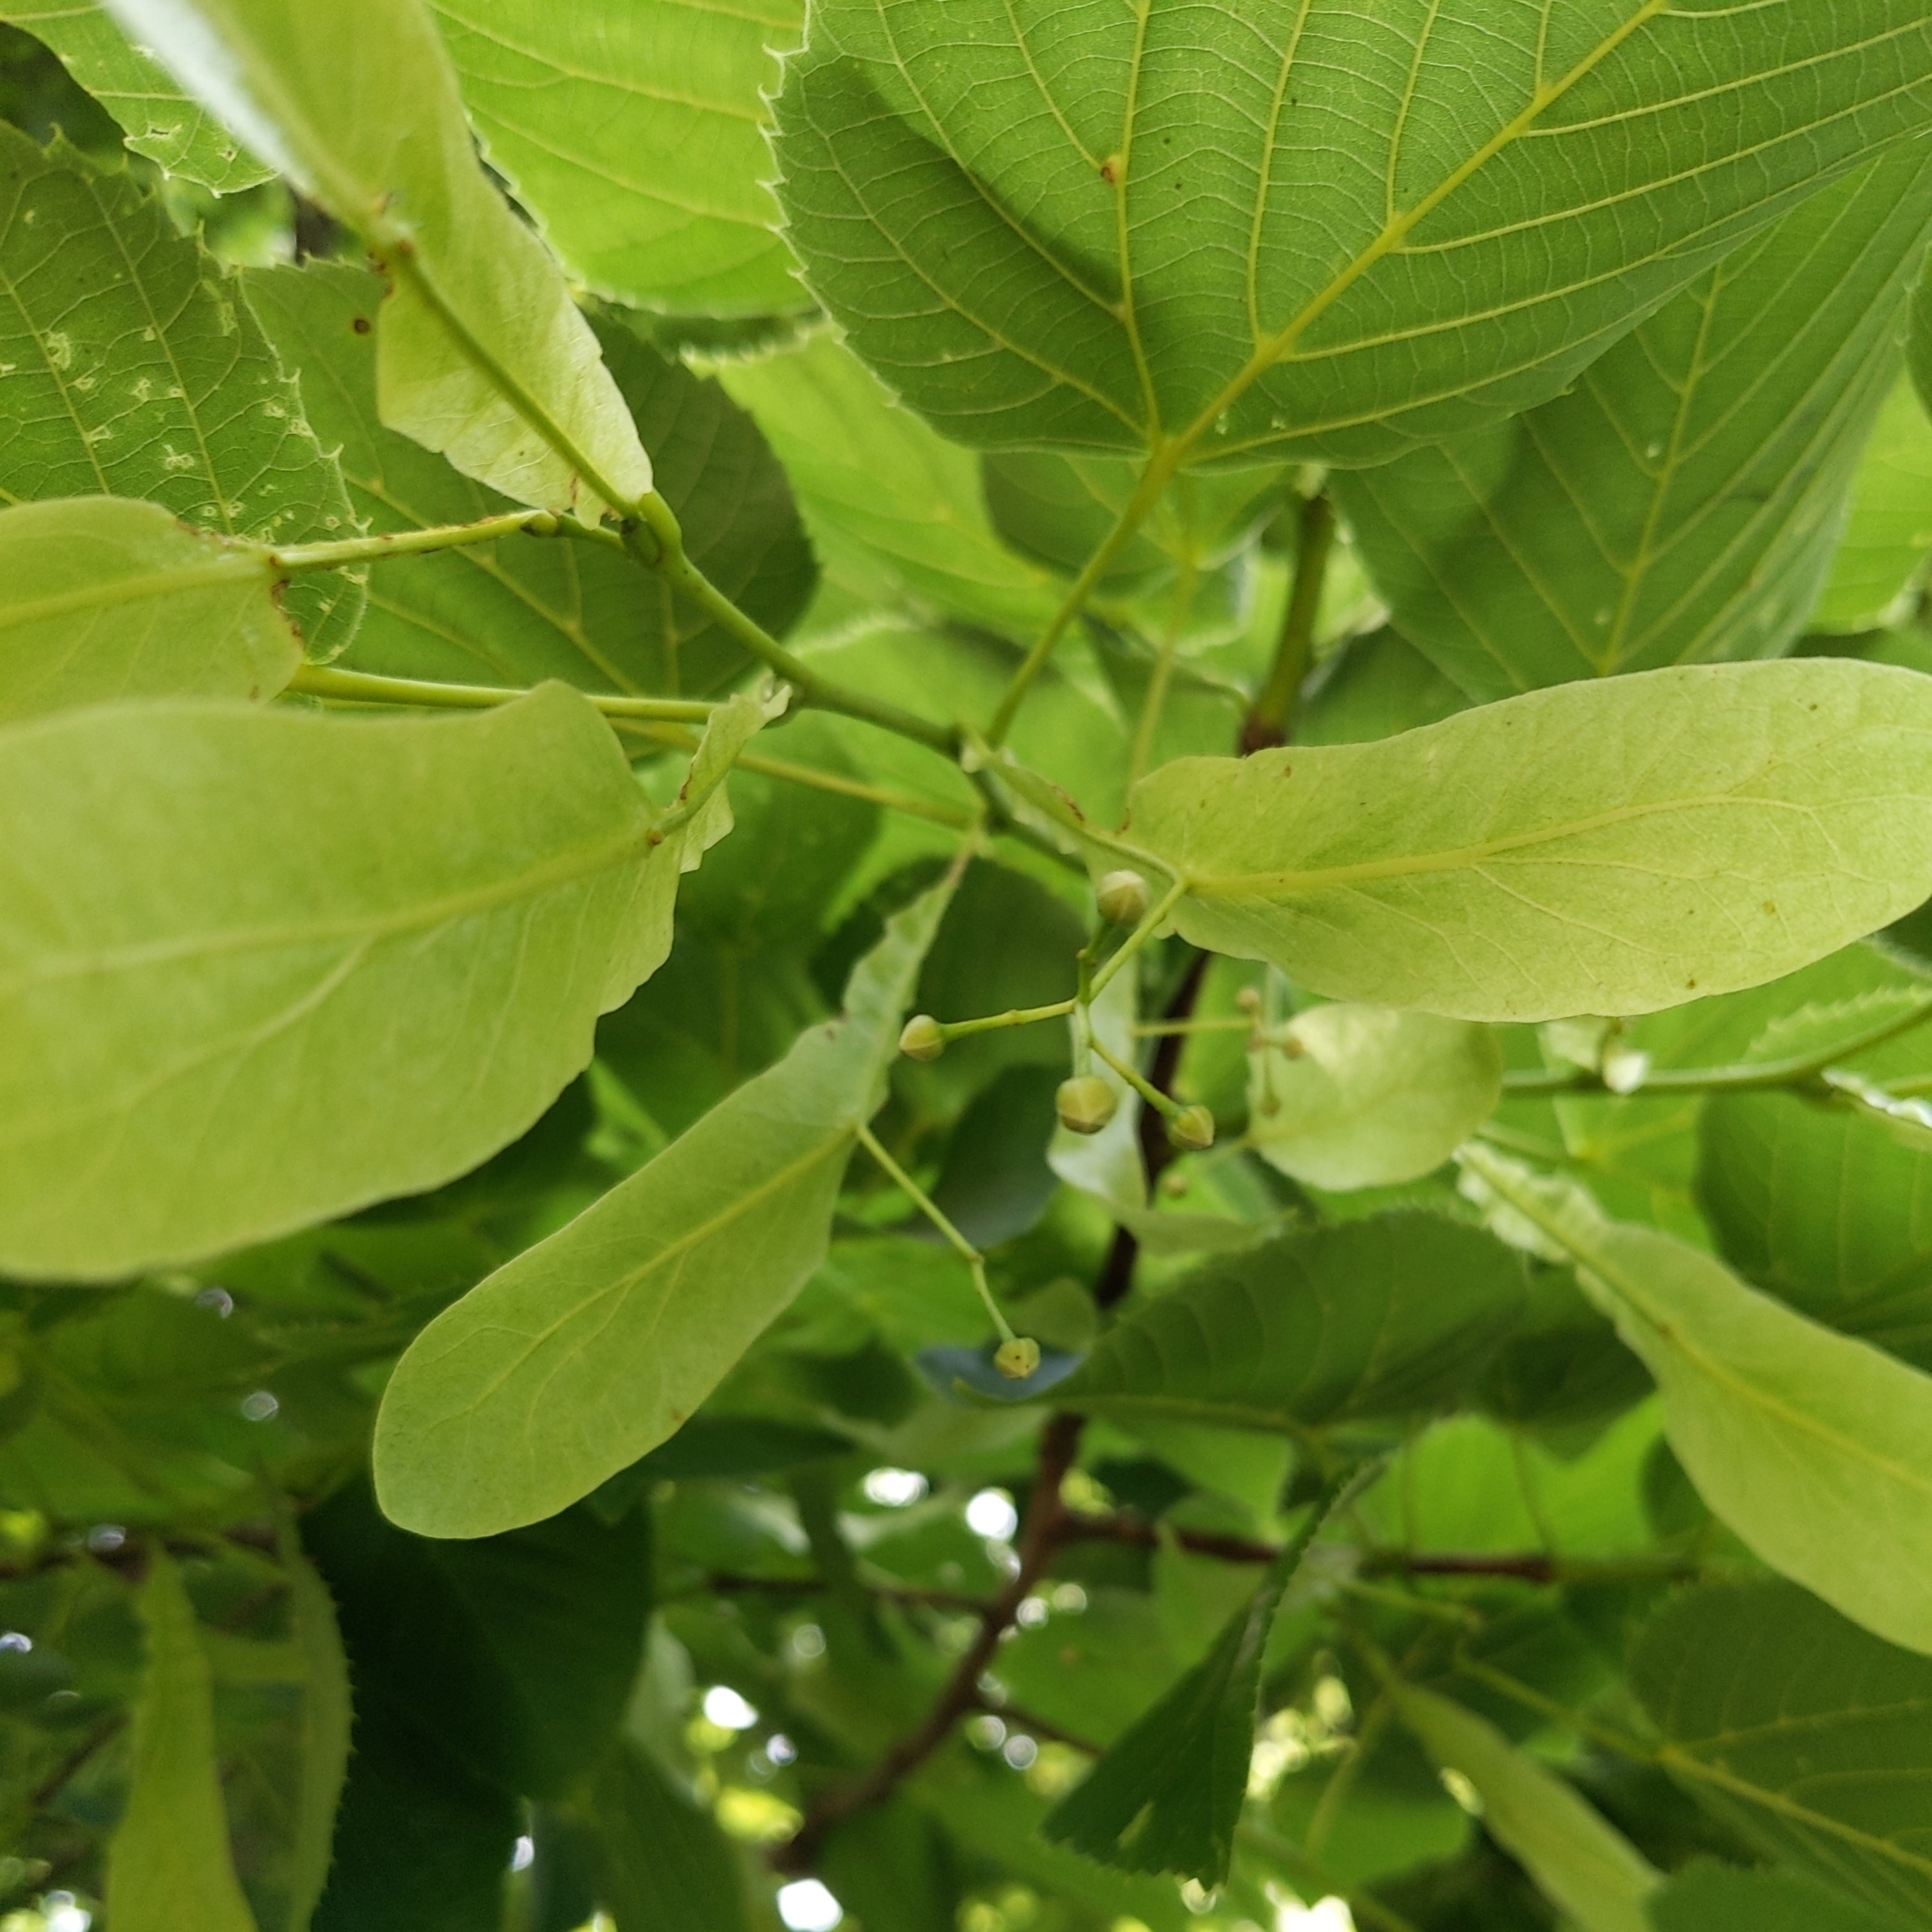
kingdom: Plantae
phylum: Tracheophyta
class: Magnoliopsida
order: Malvales
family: Malvaceae
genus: Tilia
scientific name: Tilia americana
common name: Basswood
